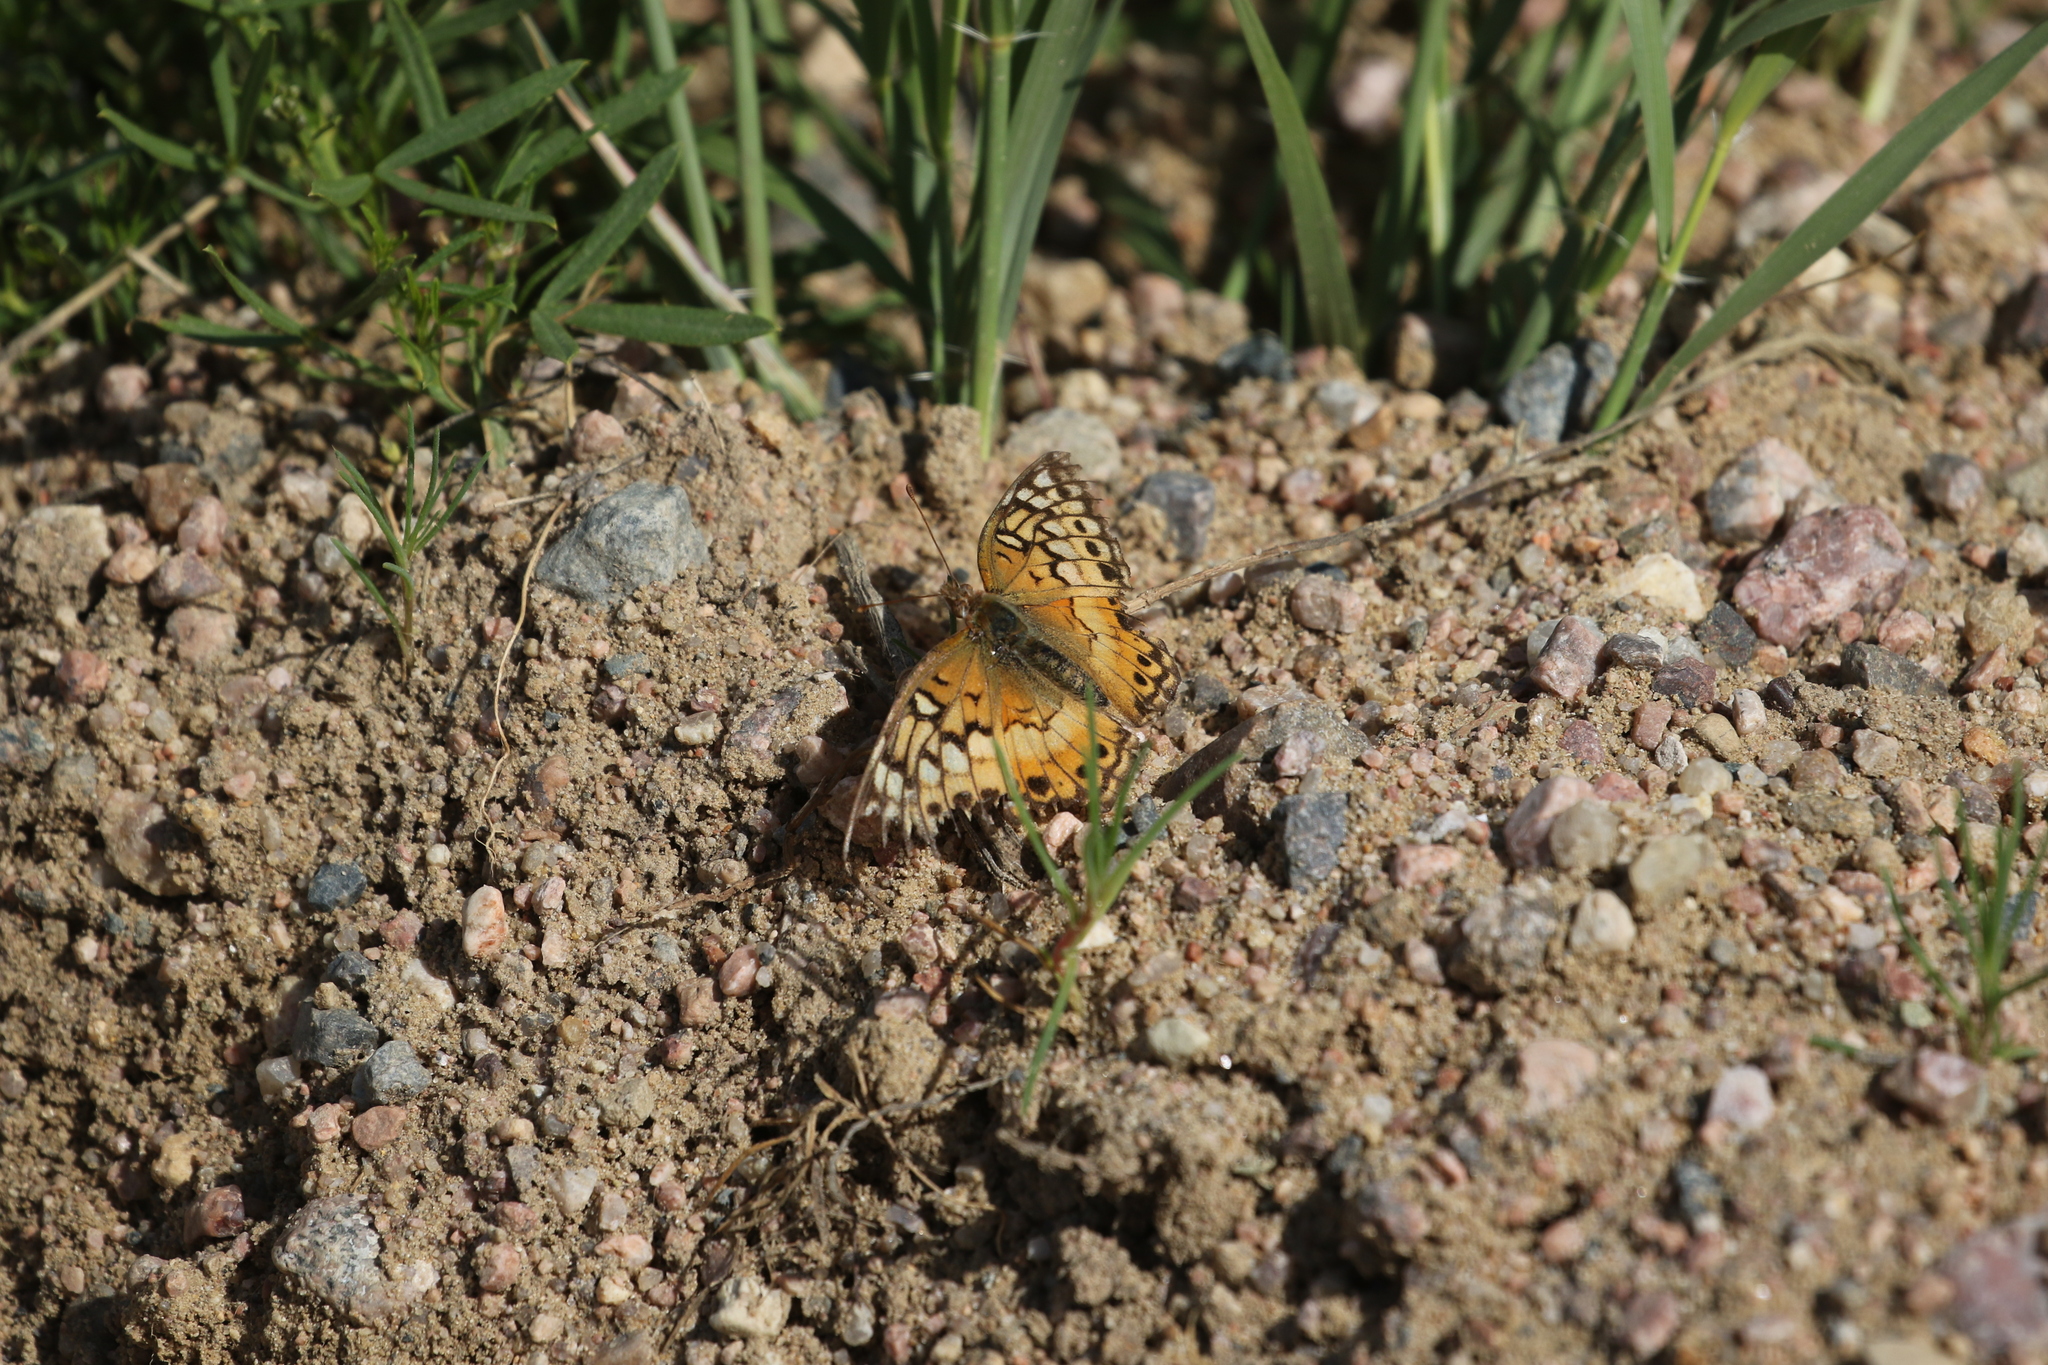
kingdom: Animalia
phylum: Arthropoda
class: Insecta
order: Lepidoptera
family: Nymphalidae
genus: Euptoieta
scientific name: Euptoieta claudia
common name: Variegated fritillary
